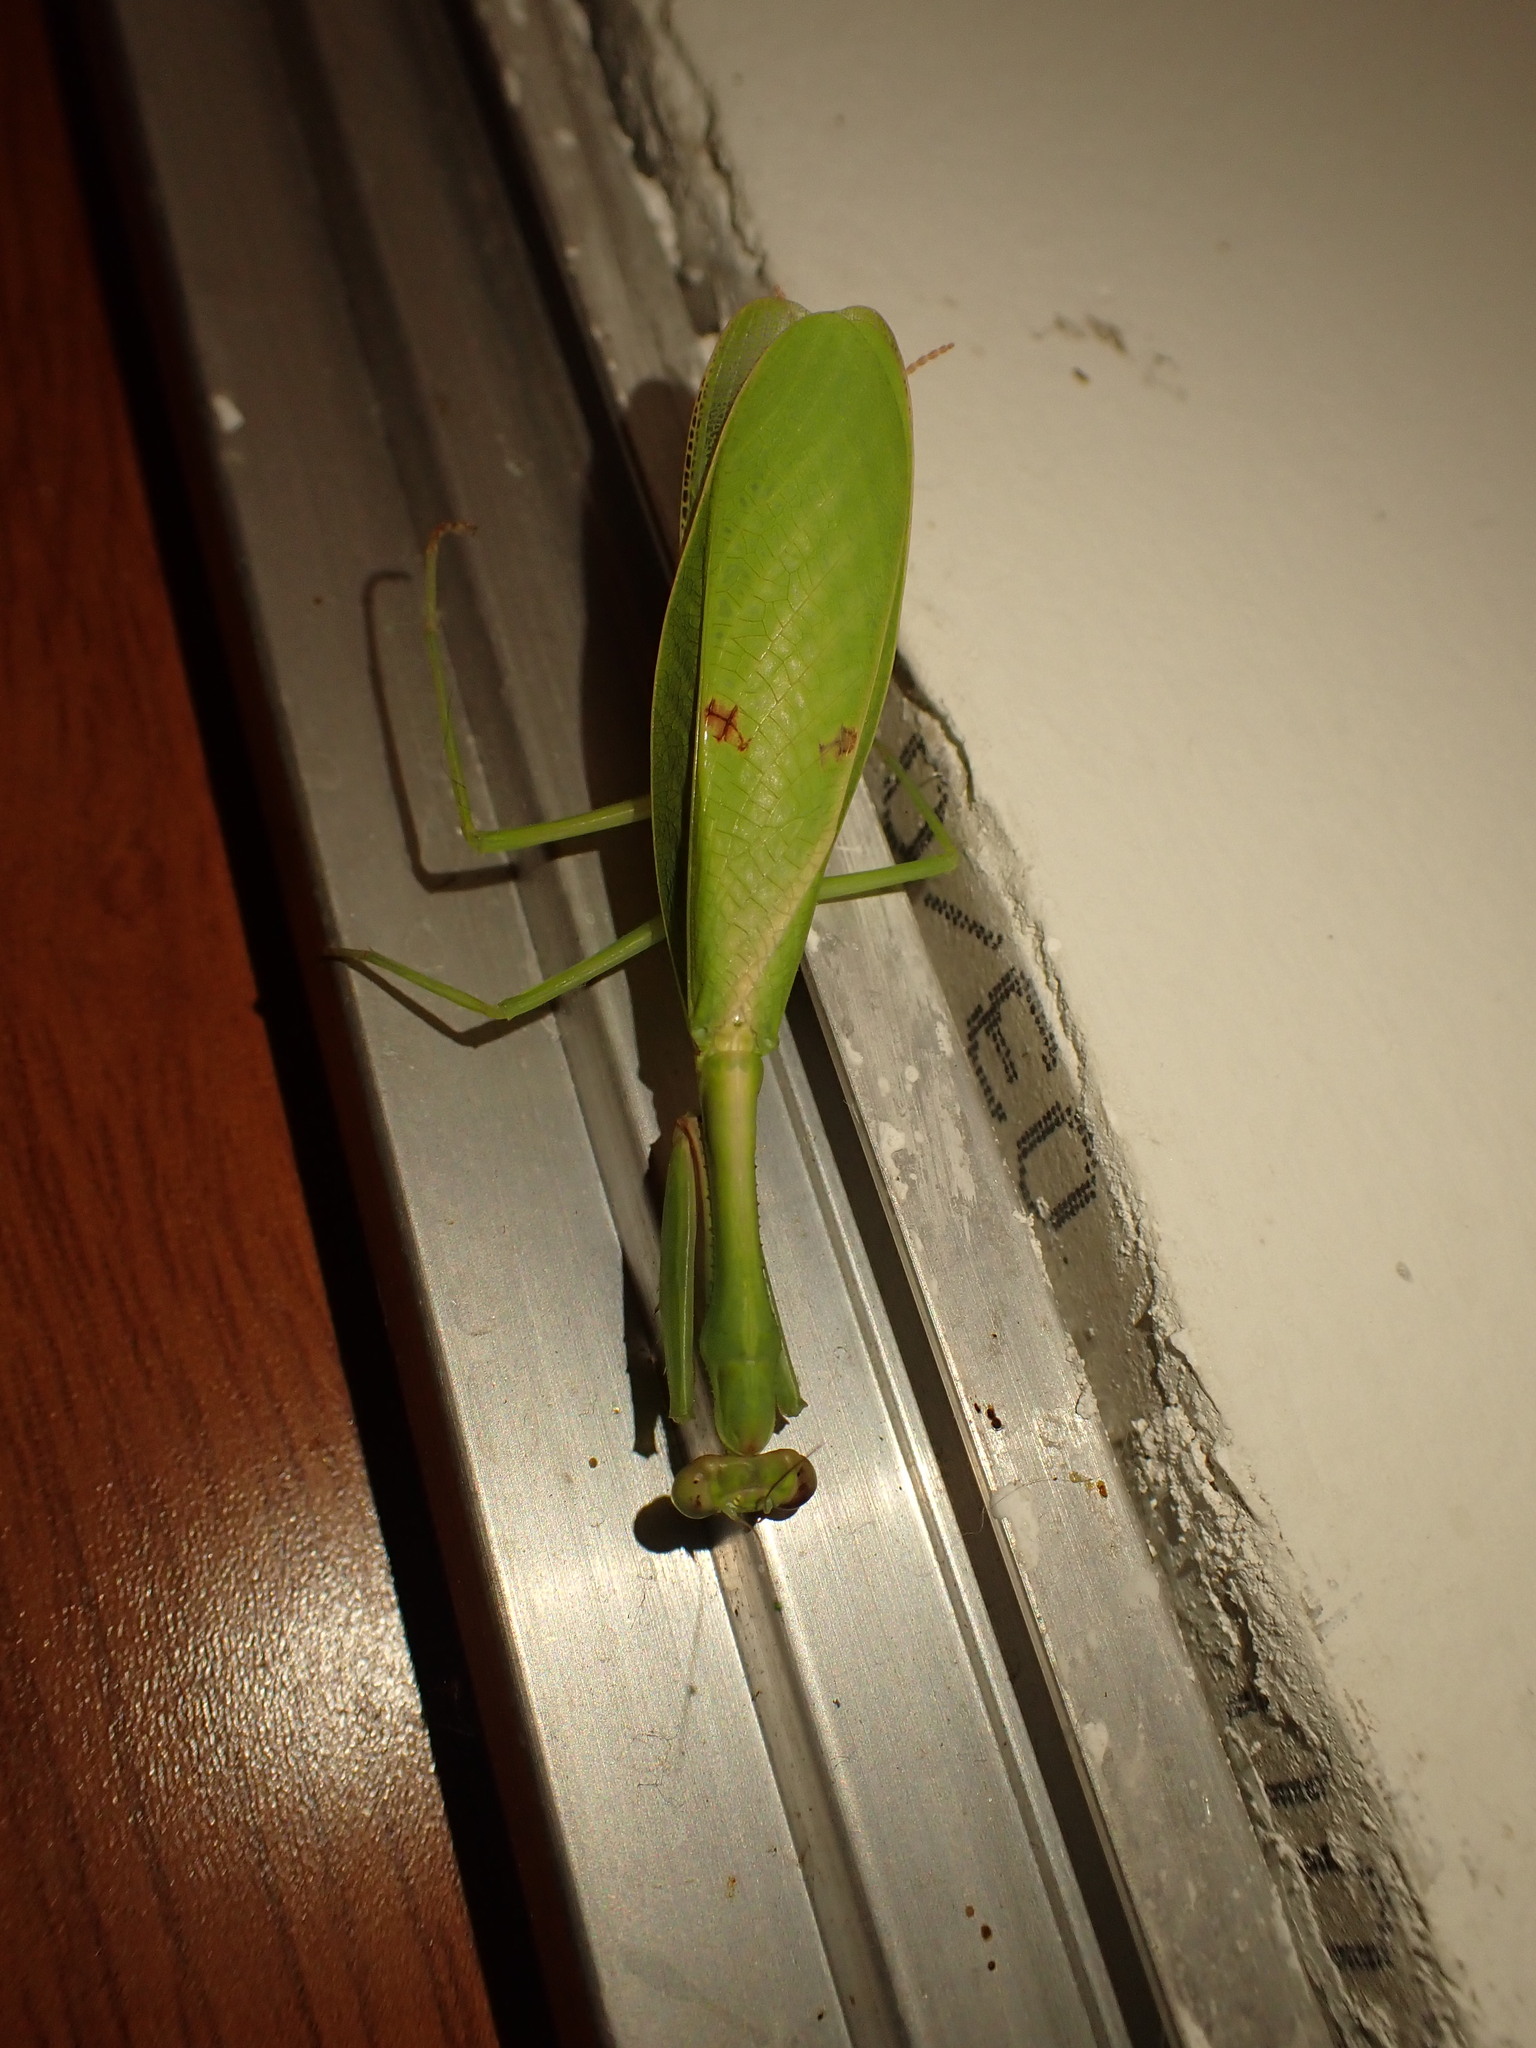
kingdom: Animalia
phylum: Arthropoda
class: Insecta
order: Mantodea
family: Mantidae
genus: Parastagmatoptera
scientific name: Parastagmatoptera unipunctata
